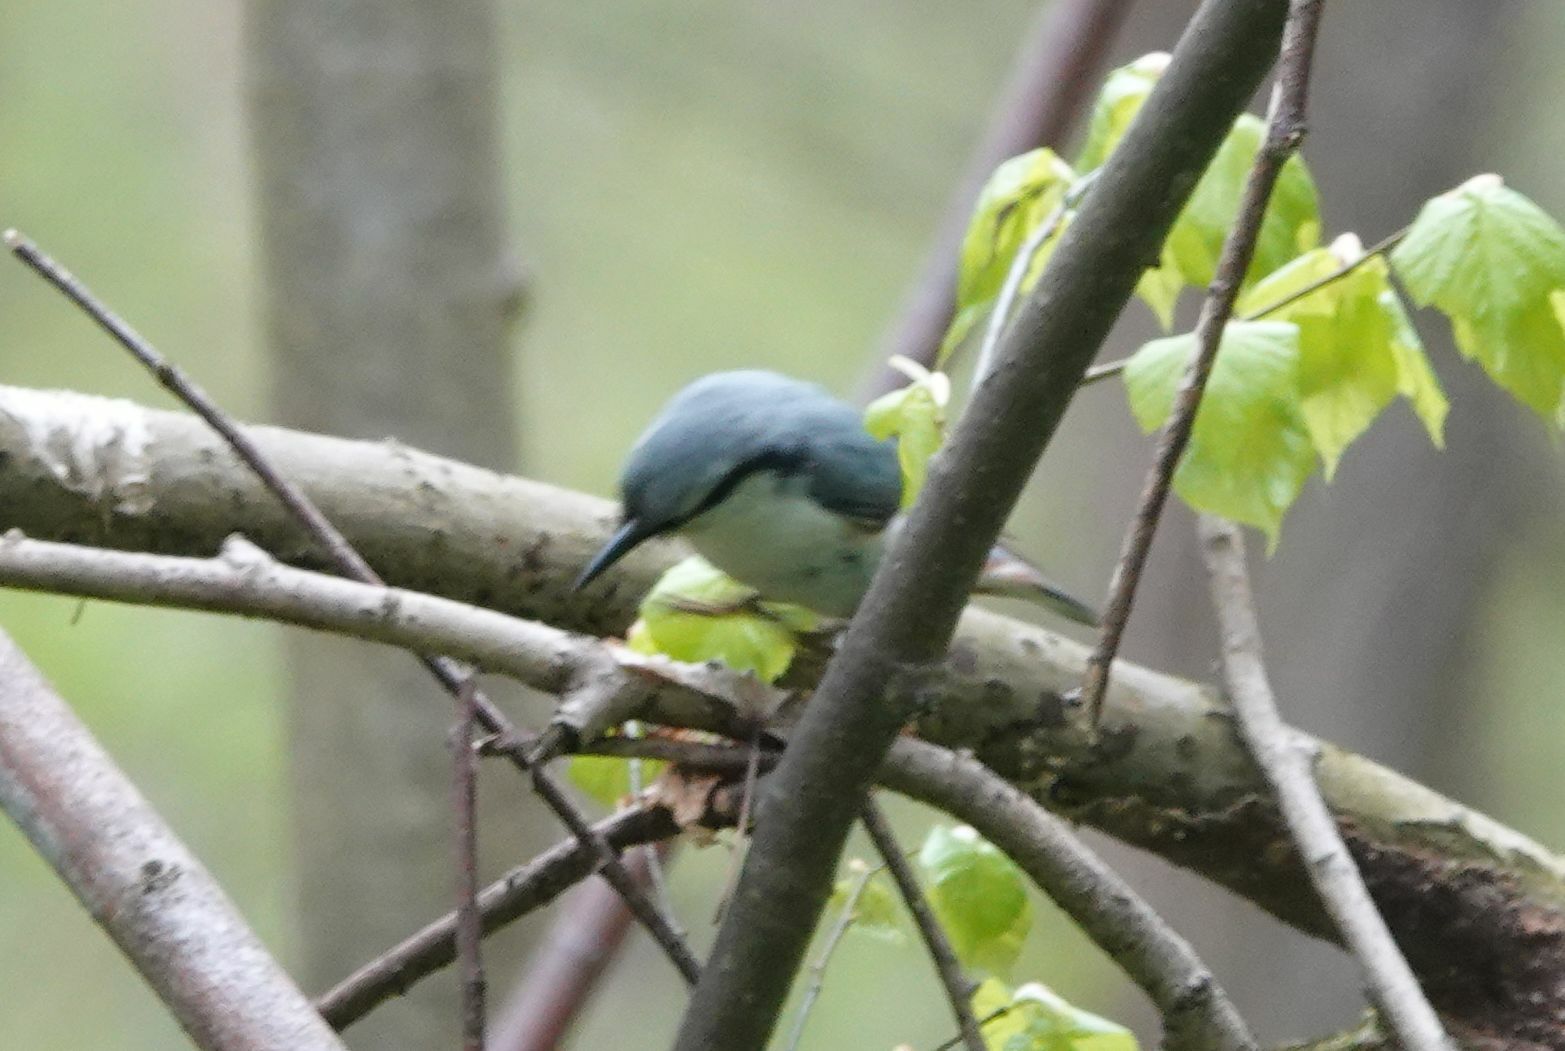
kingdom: Animalia
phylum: Chordata
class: Aves
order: Passeriformes
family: Sittidae
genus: Sitta
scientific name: Sitta europaea
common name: Eurasian nuthatch
